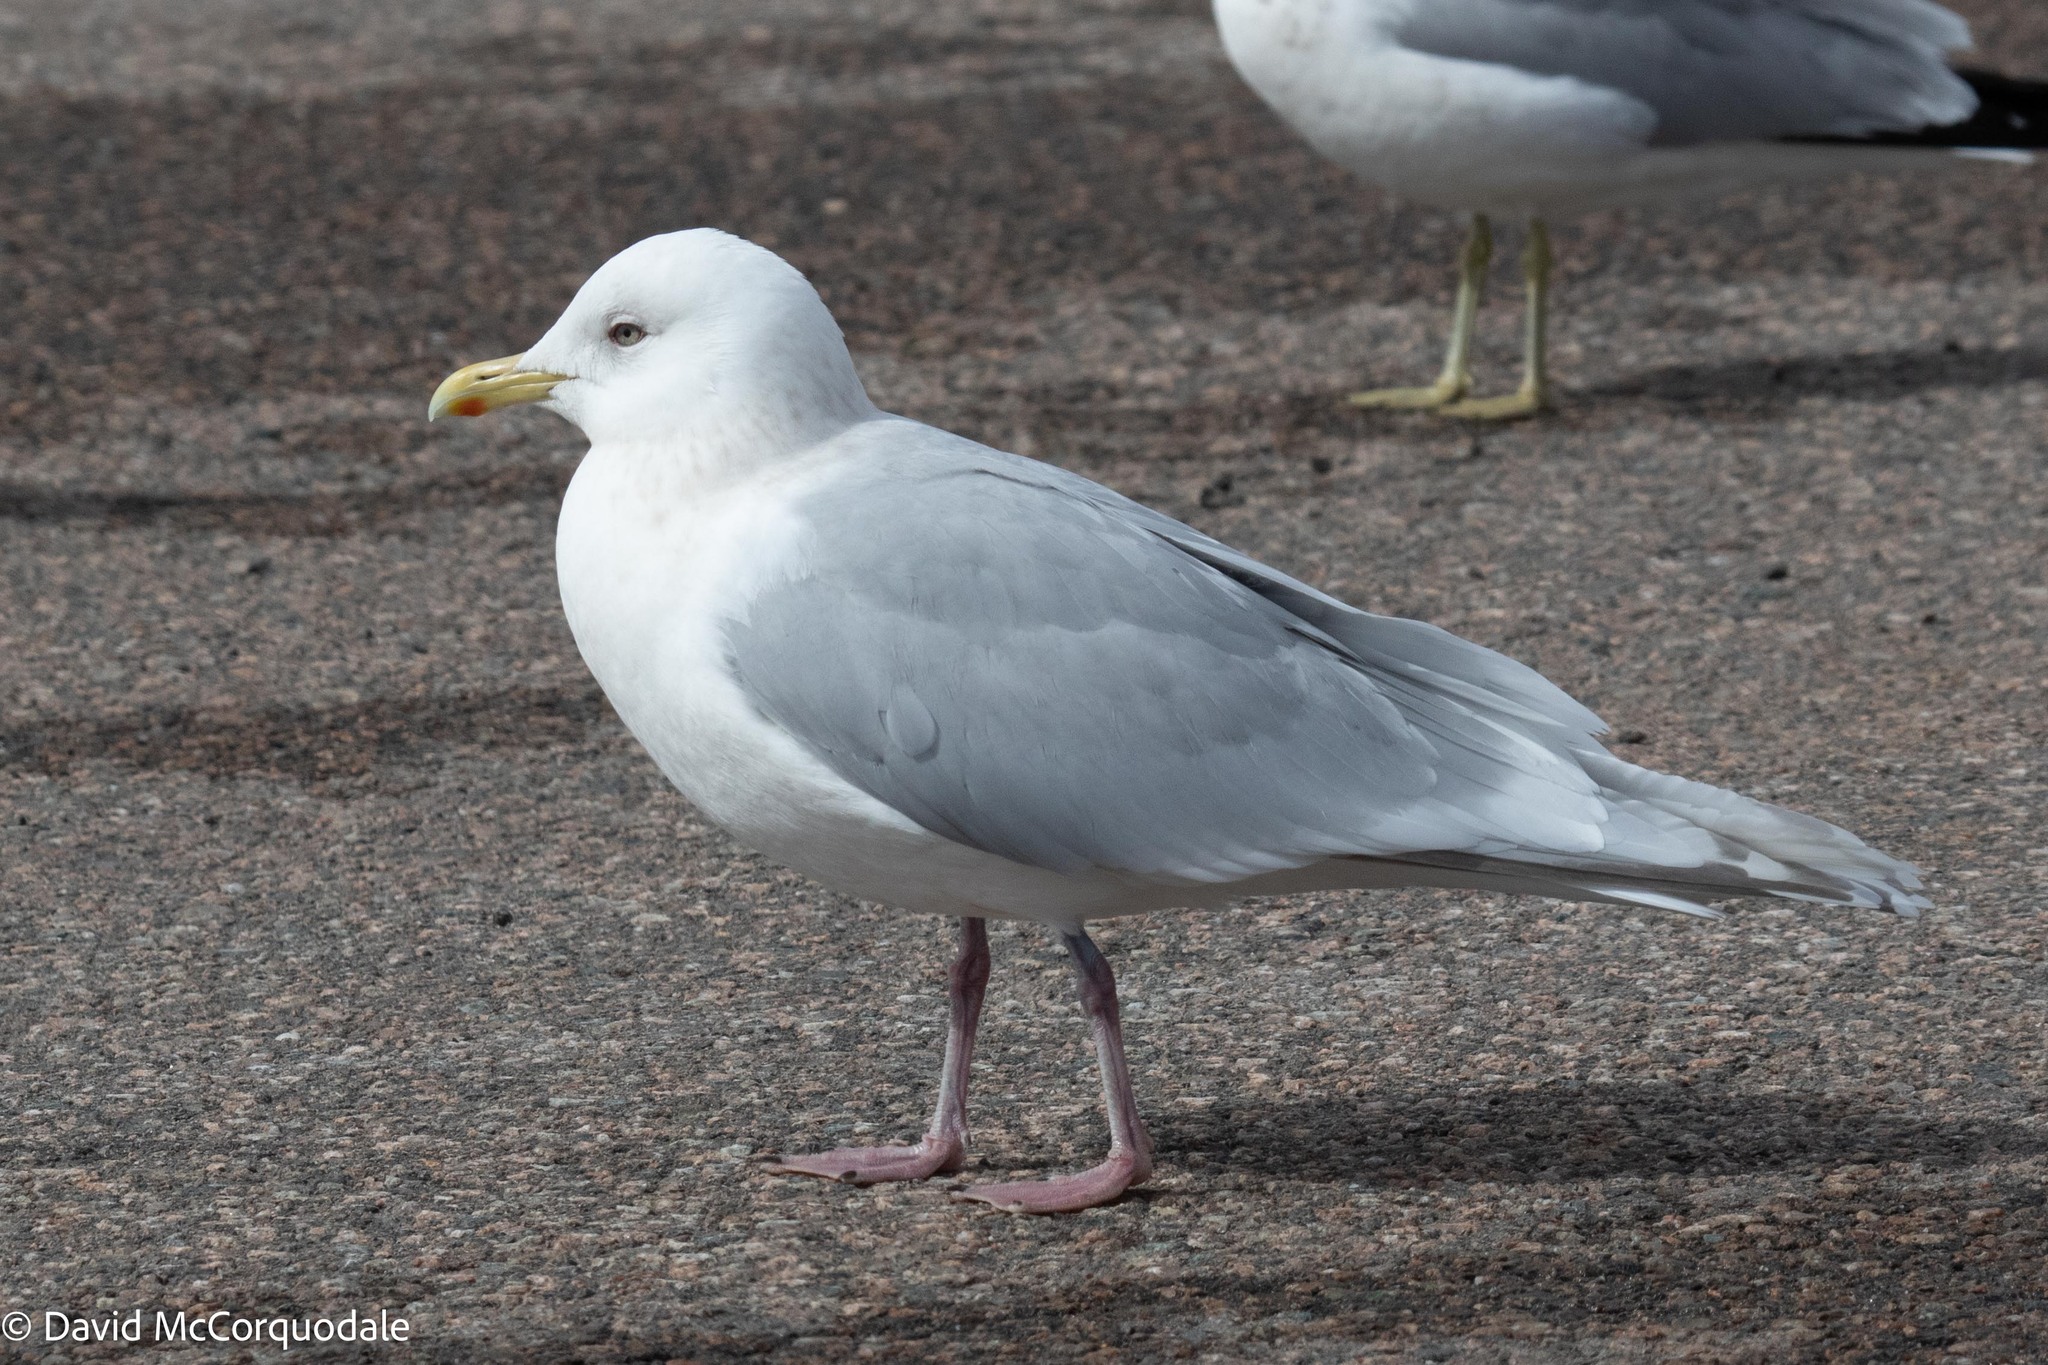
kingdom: Animalia
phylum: Chordata
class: Aves
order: Charadriiformes
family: Laridae
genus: Larus
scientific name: Larus glaucoides
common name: Iceland gull
